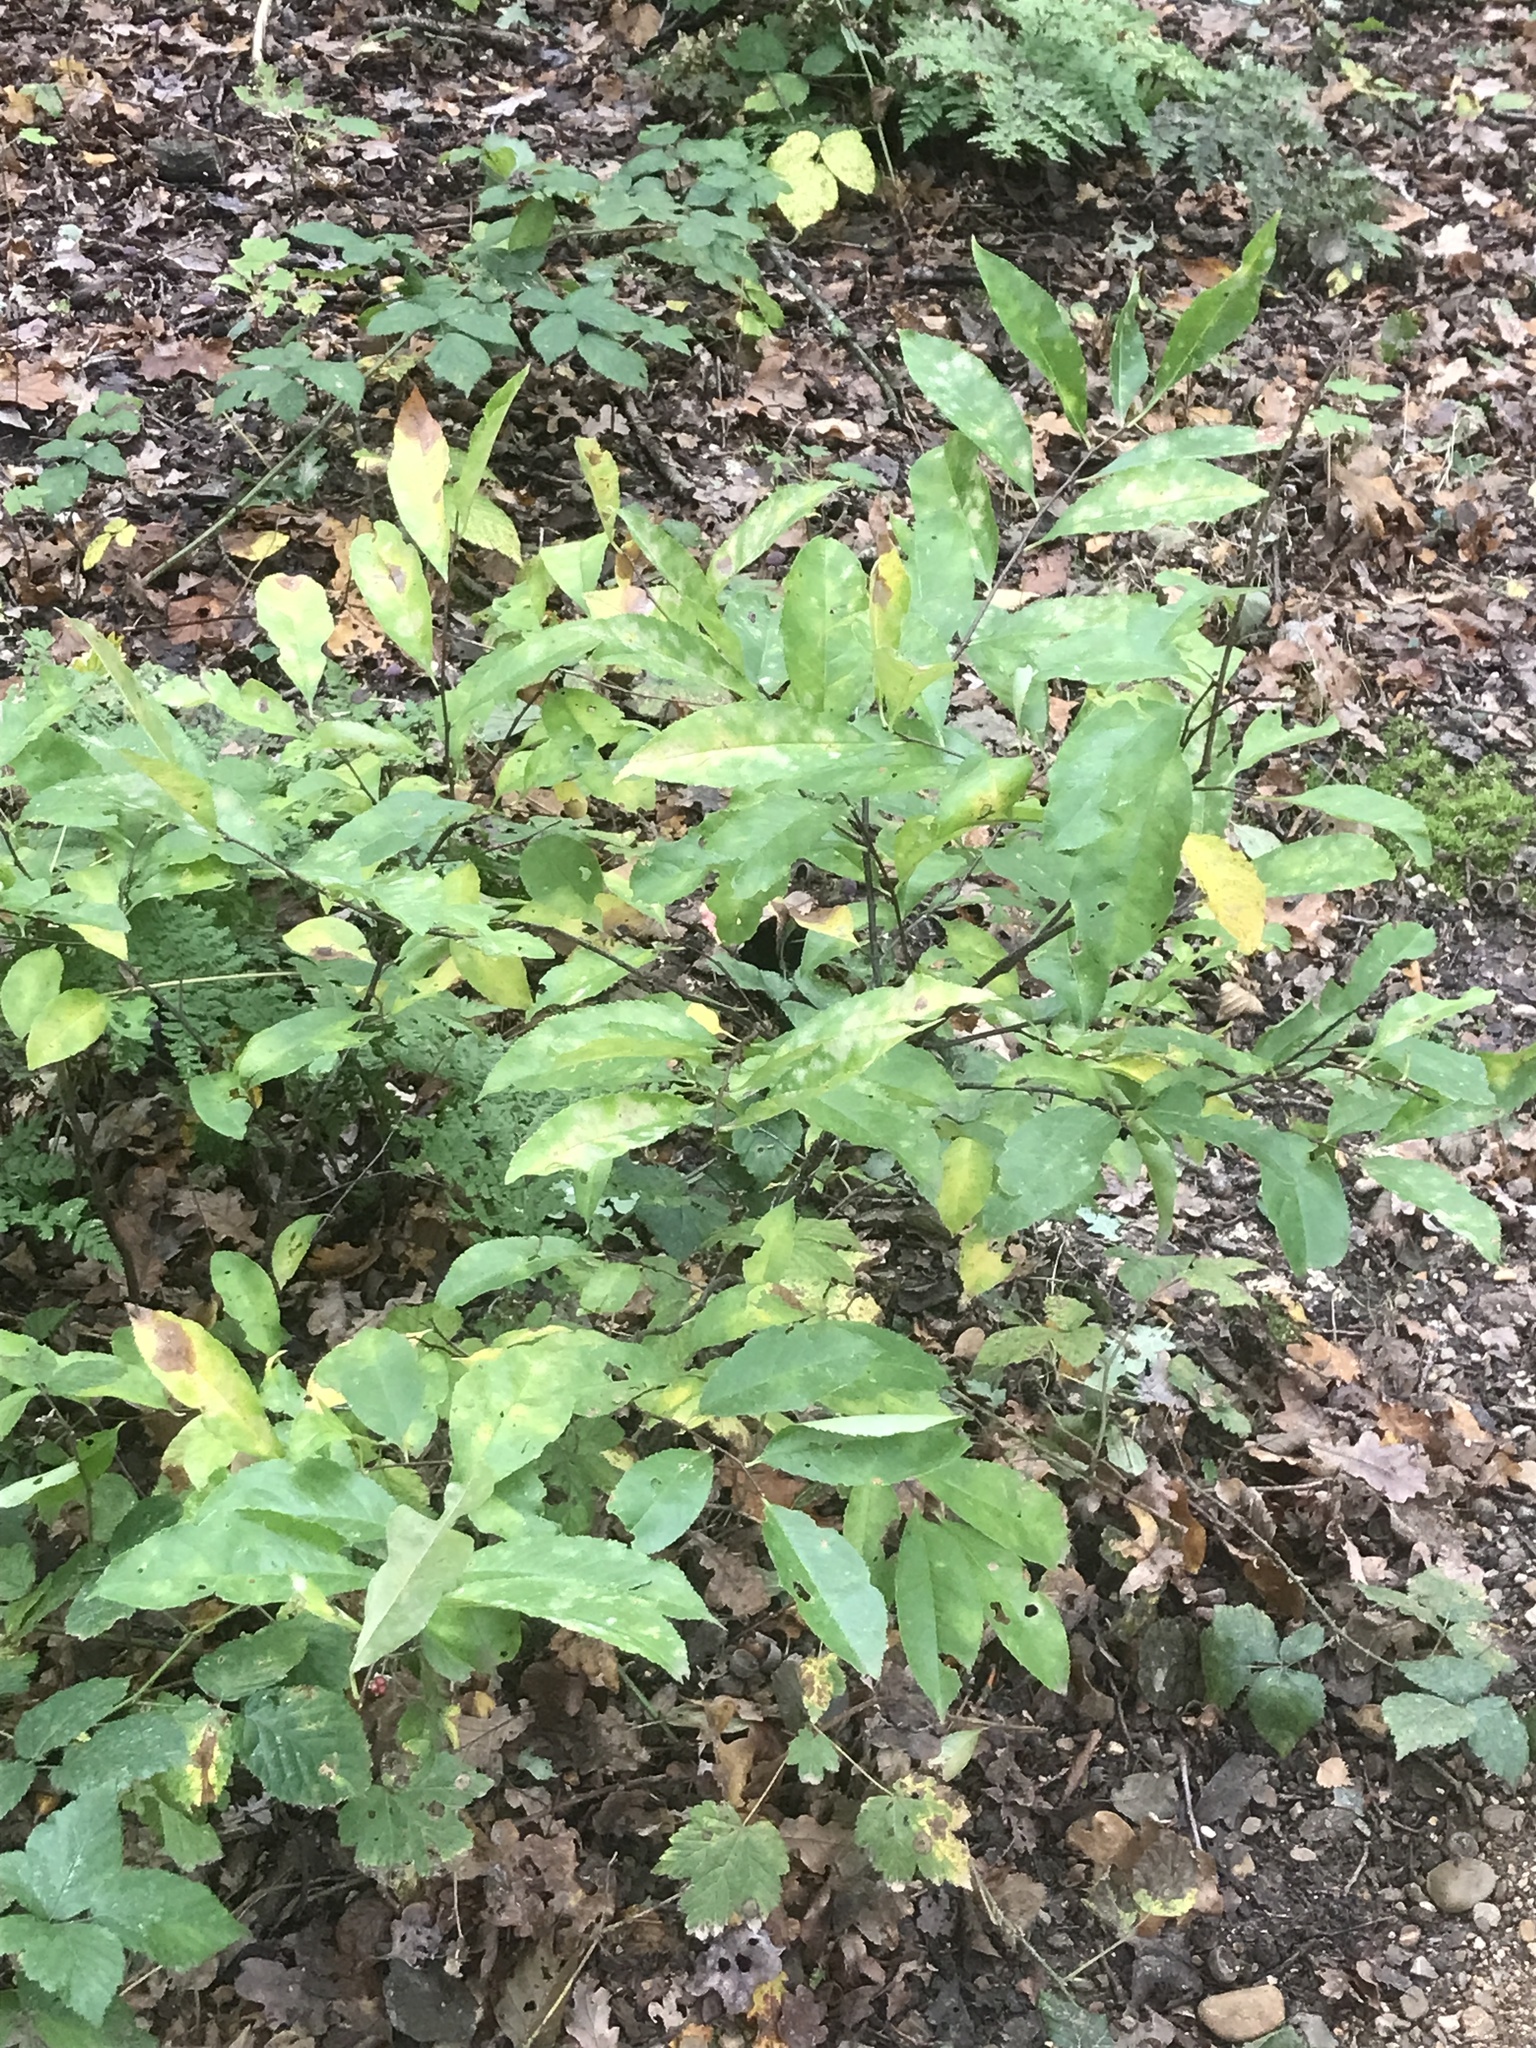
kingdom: Plantae
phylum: Tracheophyta
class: Magnoliopsida
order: Rosales
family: Rosaceae
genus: Prunus
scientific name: Prunus serotina
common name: Black cherry
